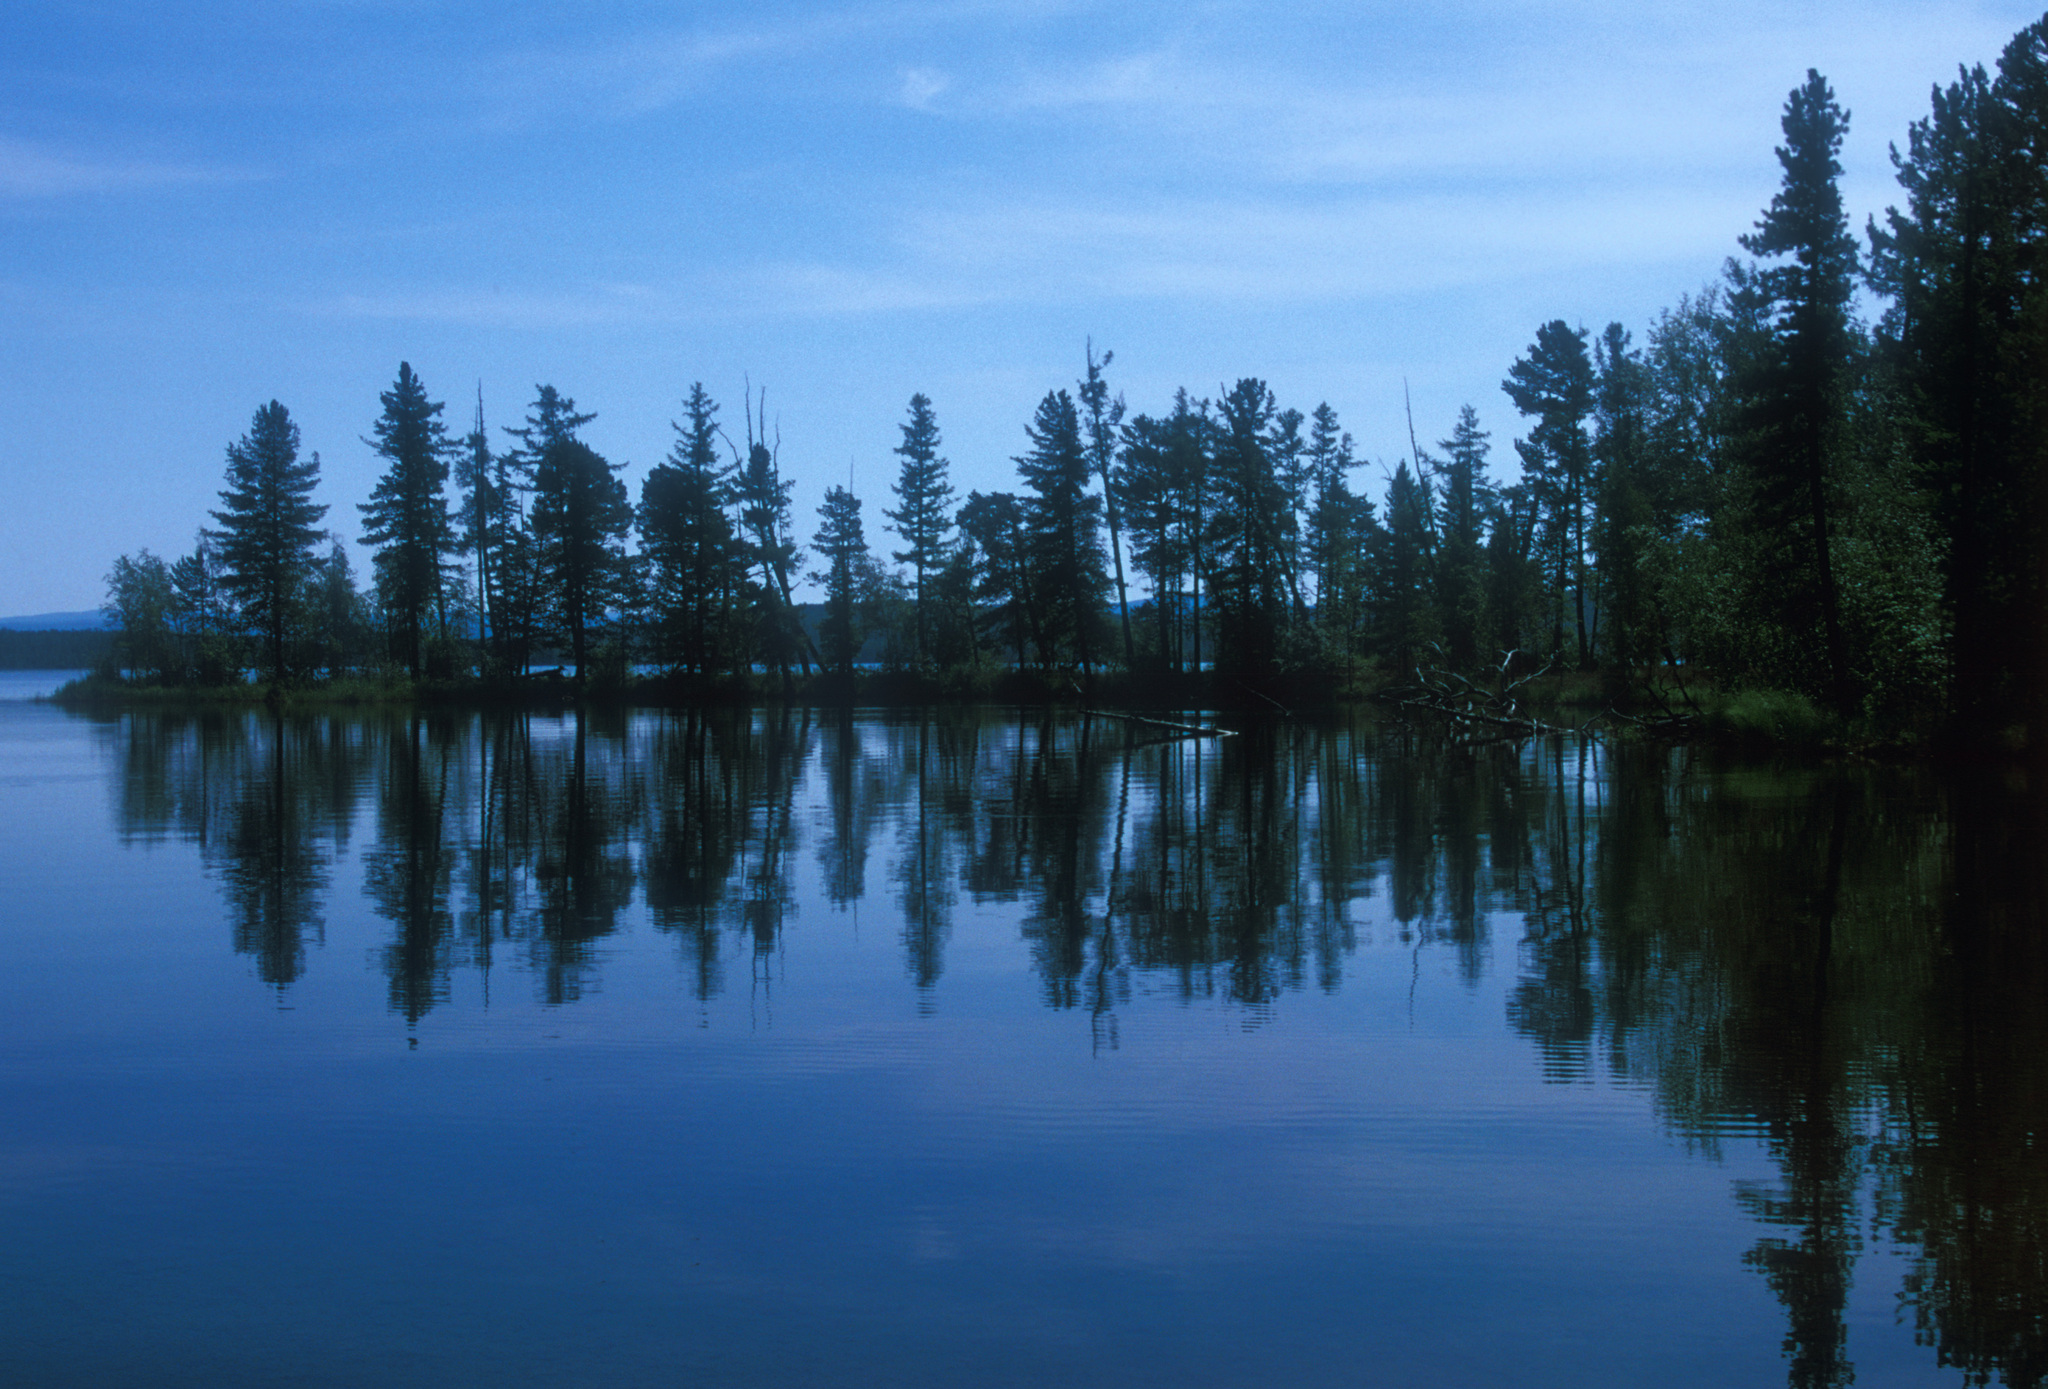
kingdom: Plantae
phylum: Tracheophyta
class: Pinopsida
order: Pinales
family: Pinaceae
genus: Larix
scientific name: Larix sibirica
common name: Siberian larch
